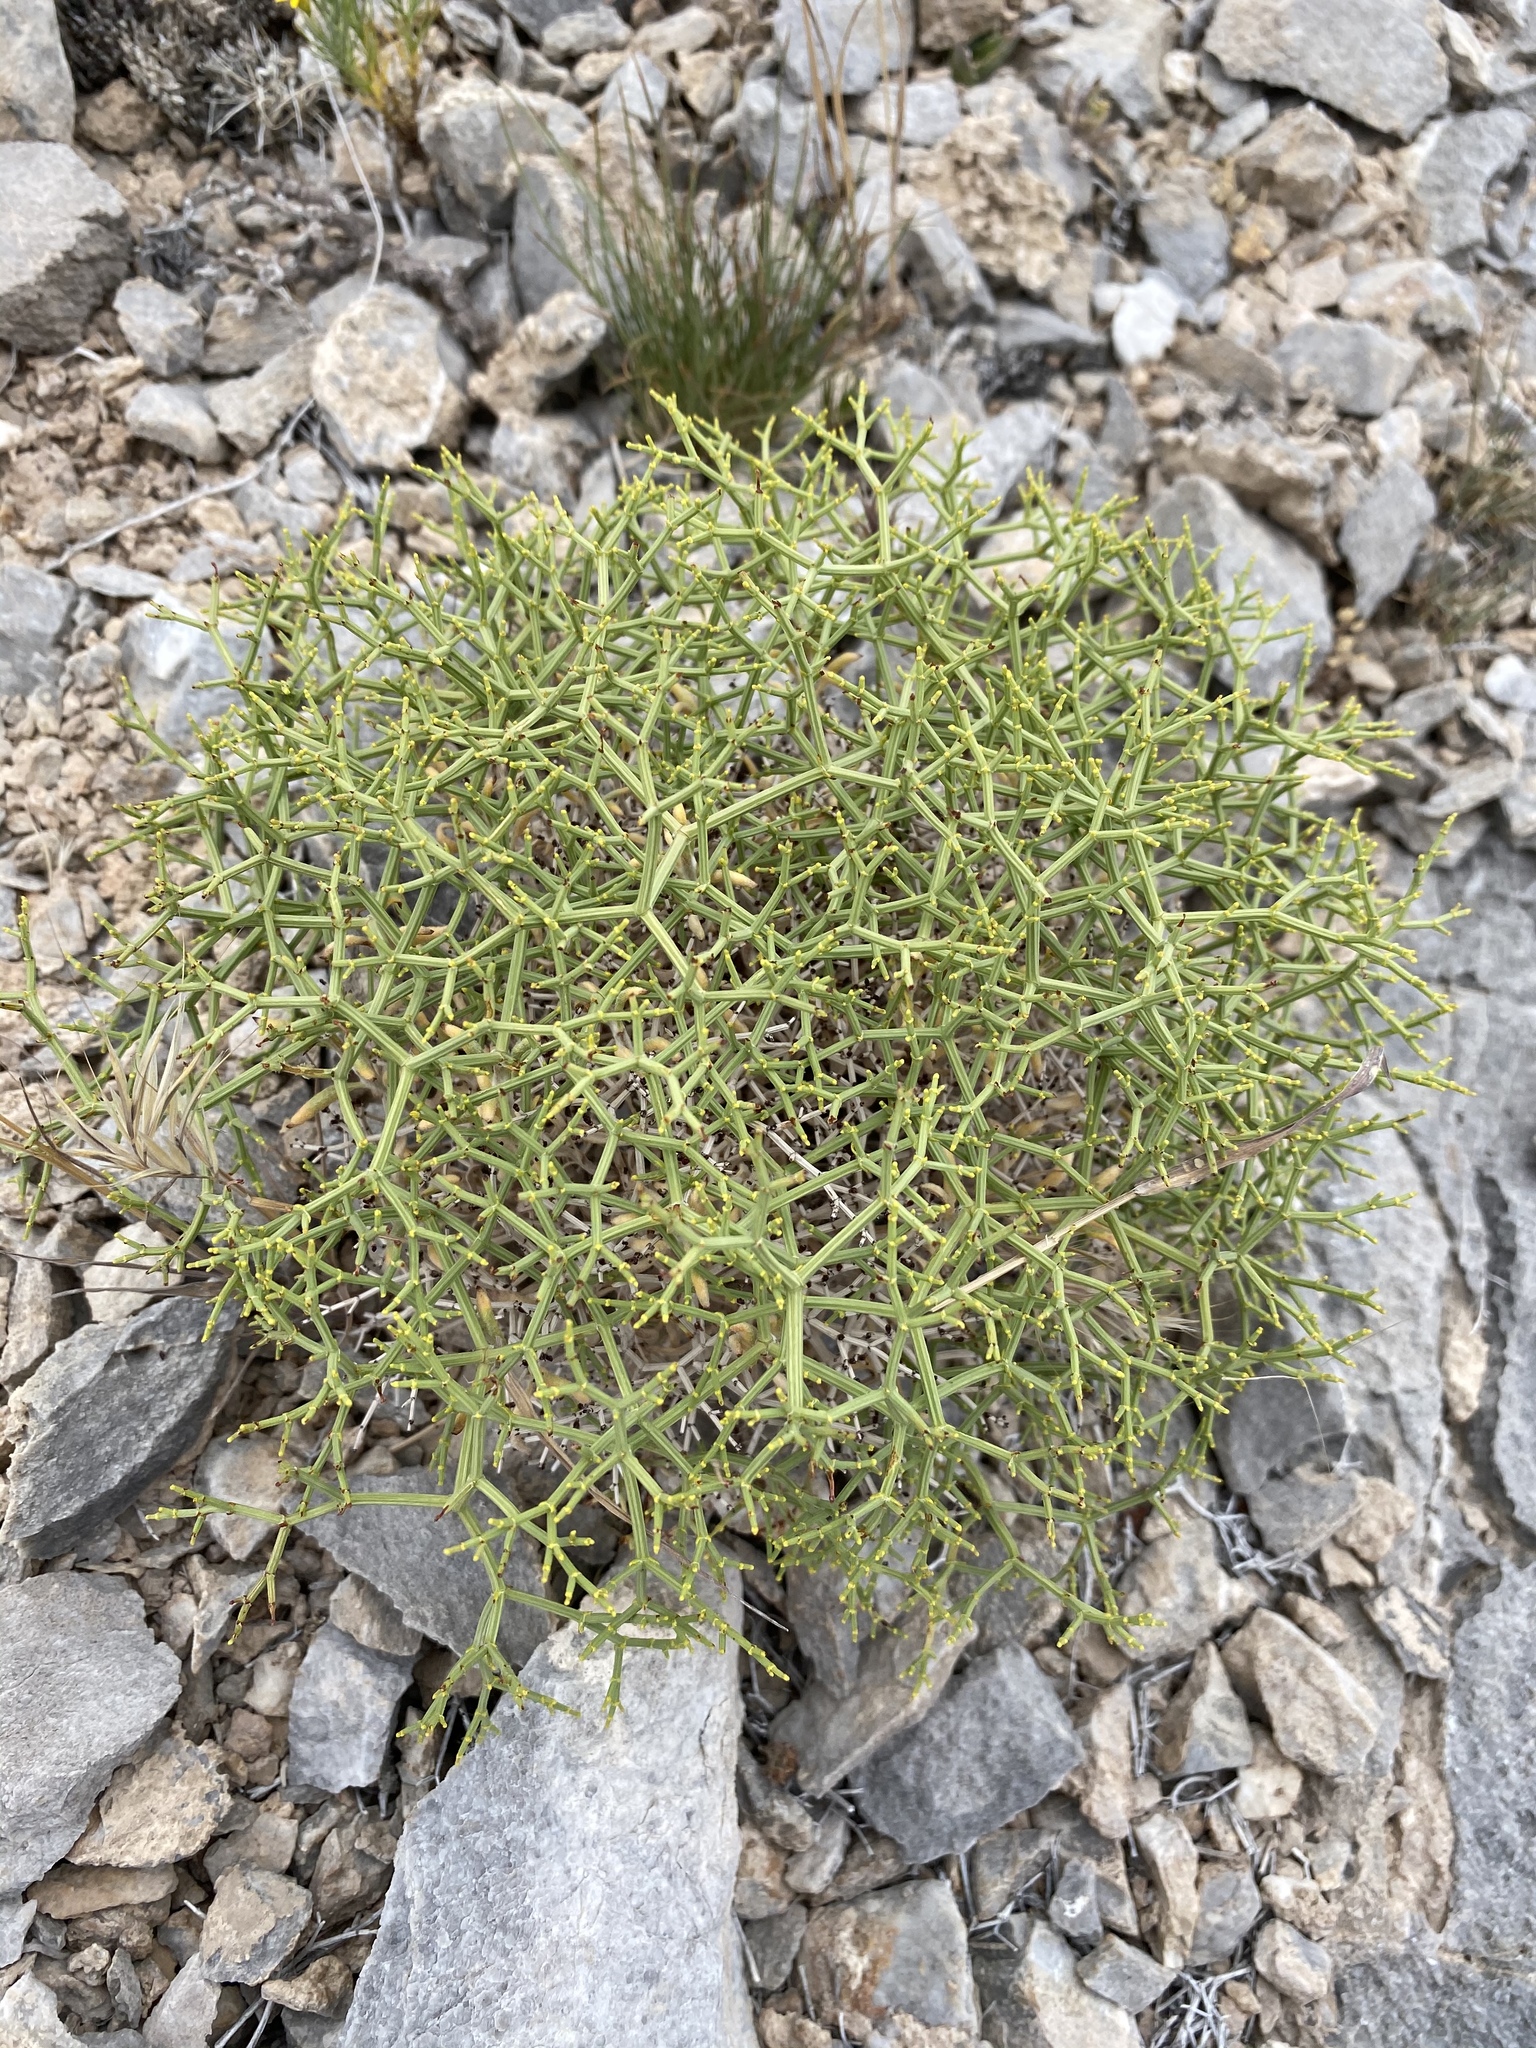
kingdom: Plantae
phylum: Tracheophyta
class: Magnoliopsida
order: Caryophyllales
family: Polygonaceae
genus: Eriogonum
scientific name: Eriogonum heermannii
